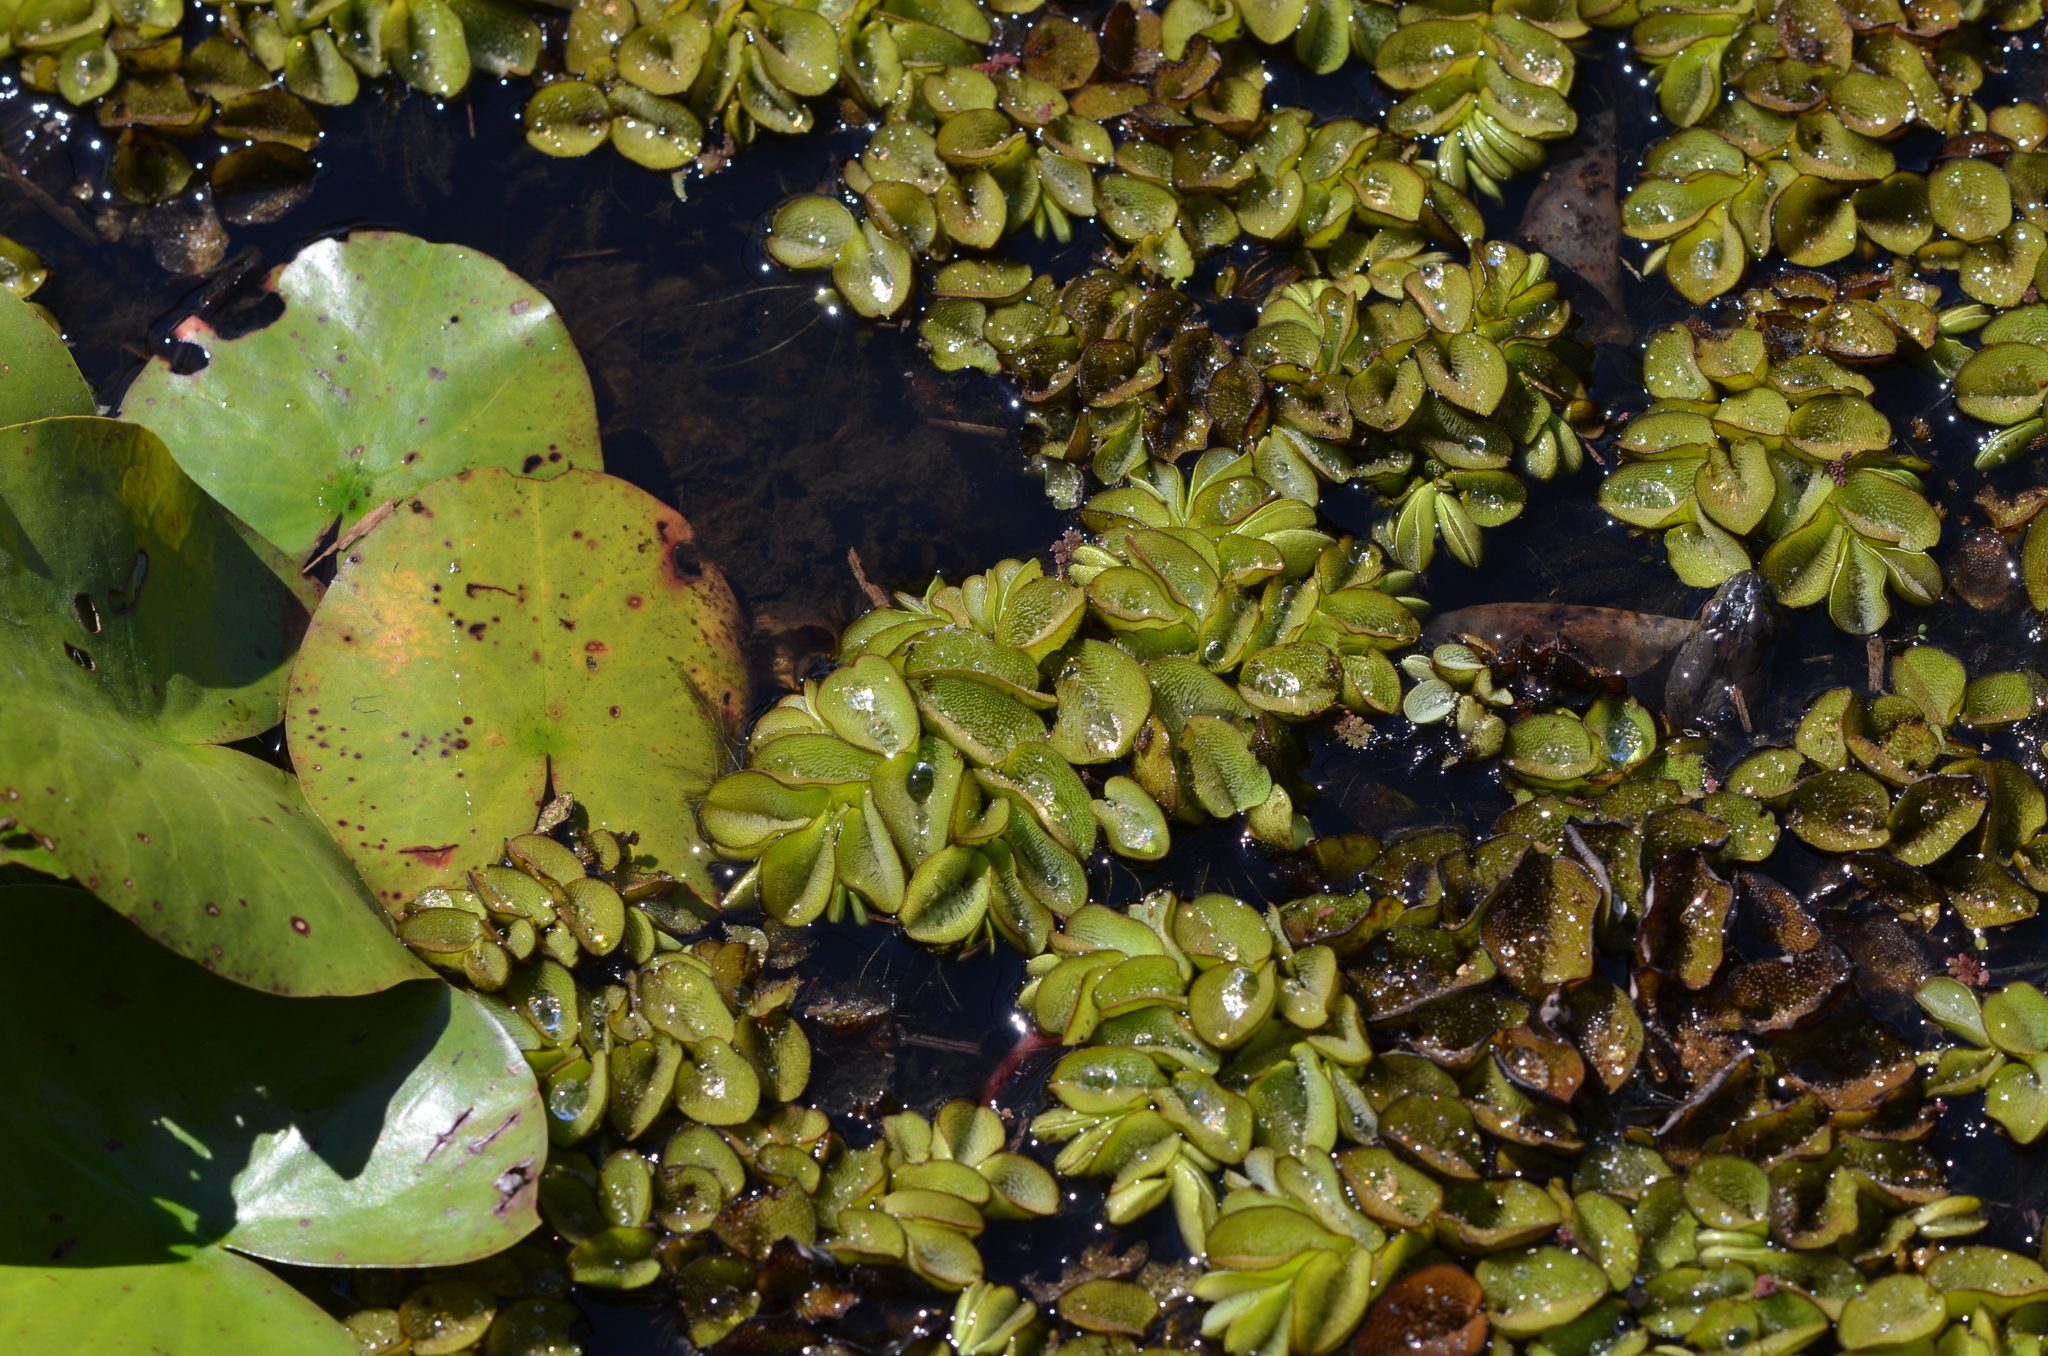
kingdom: Plantae
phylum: Tracheophyta
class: Polypodiopsida
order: Salviniales
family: Salviniaceae
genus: Salvinia
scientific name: Salvinia molesta
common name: Kariba weed
